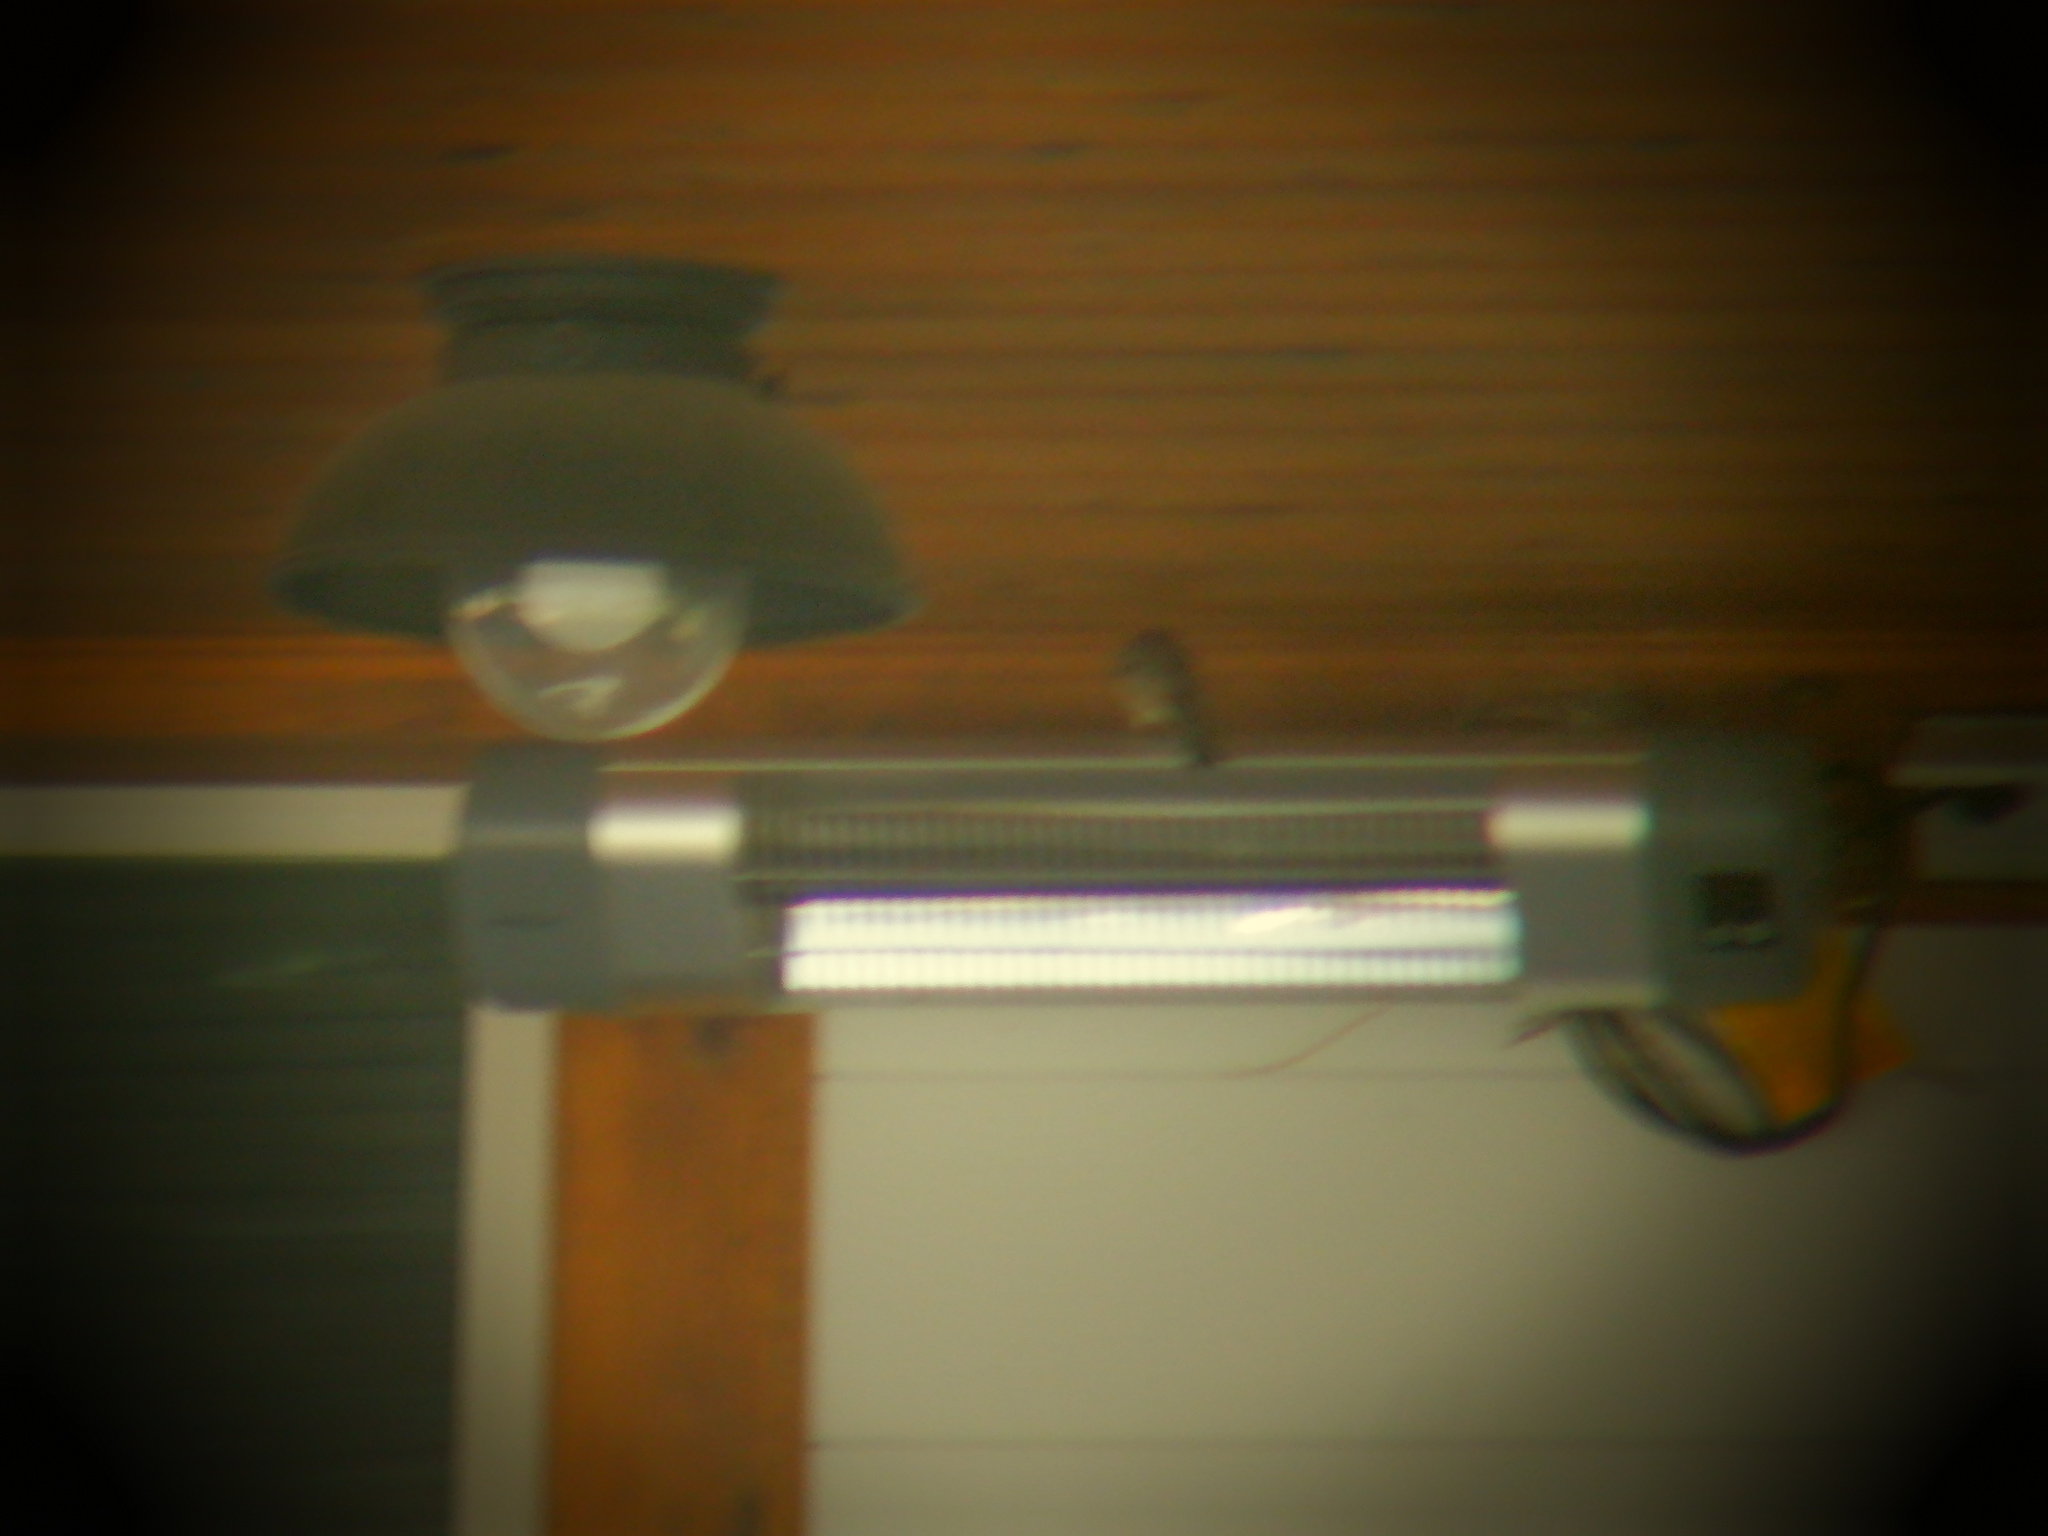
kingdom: Animalia
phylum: Chordata
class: Aves
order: Passeriformes
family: Fringillidae
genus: Haemorhous
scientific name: Haemorhous mexicanus
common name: House finch
